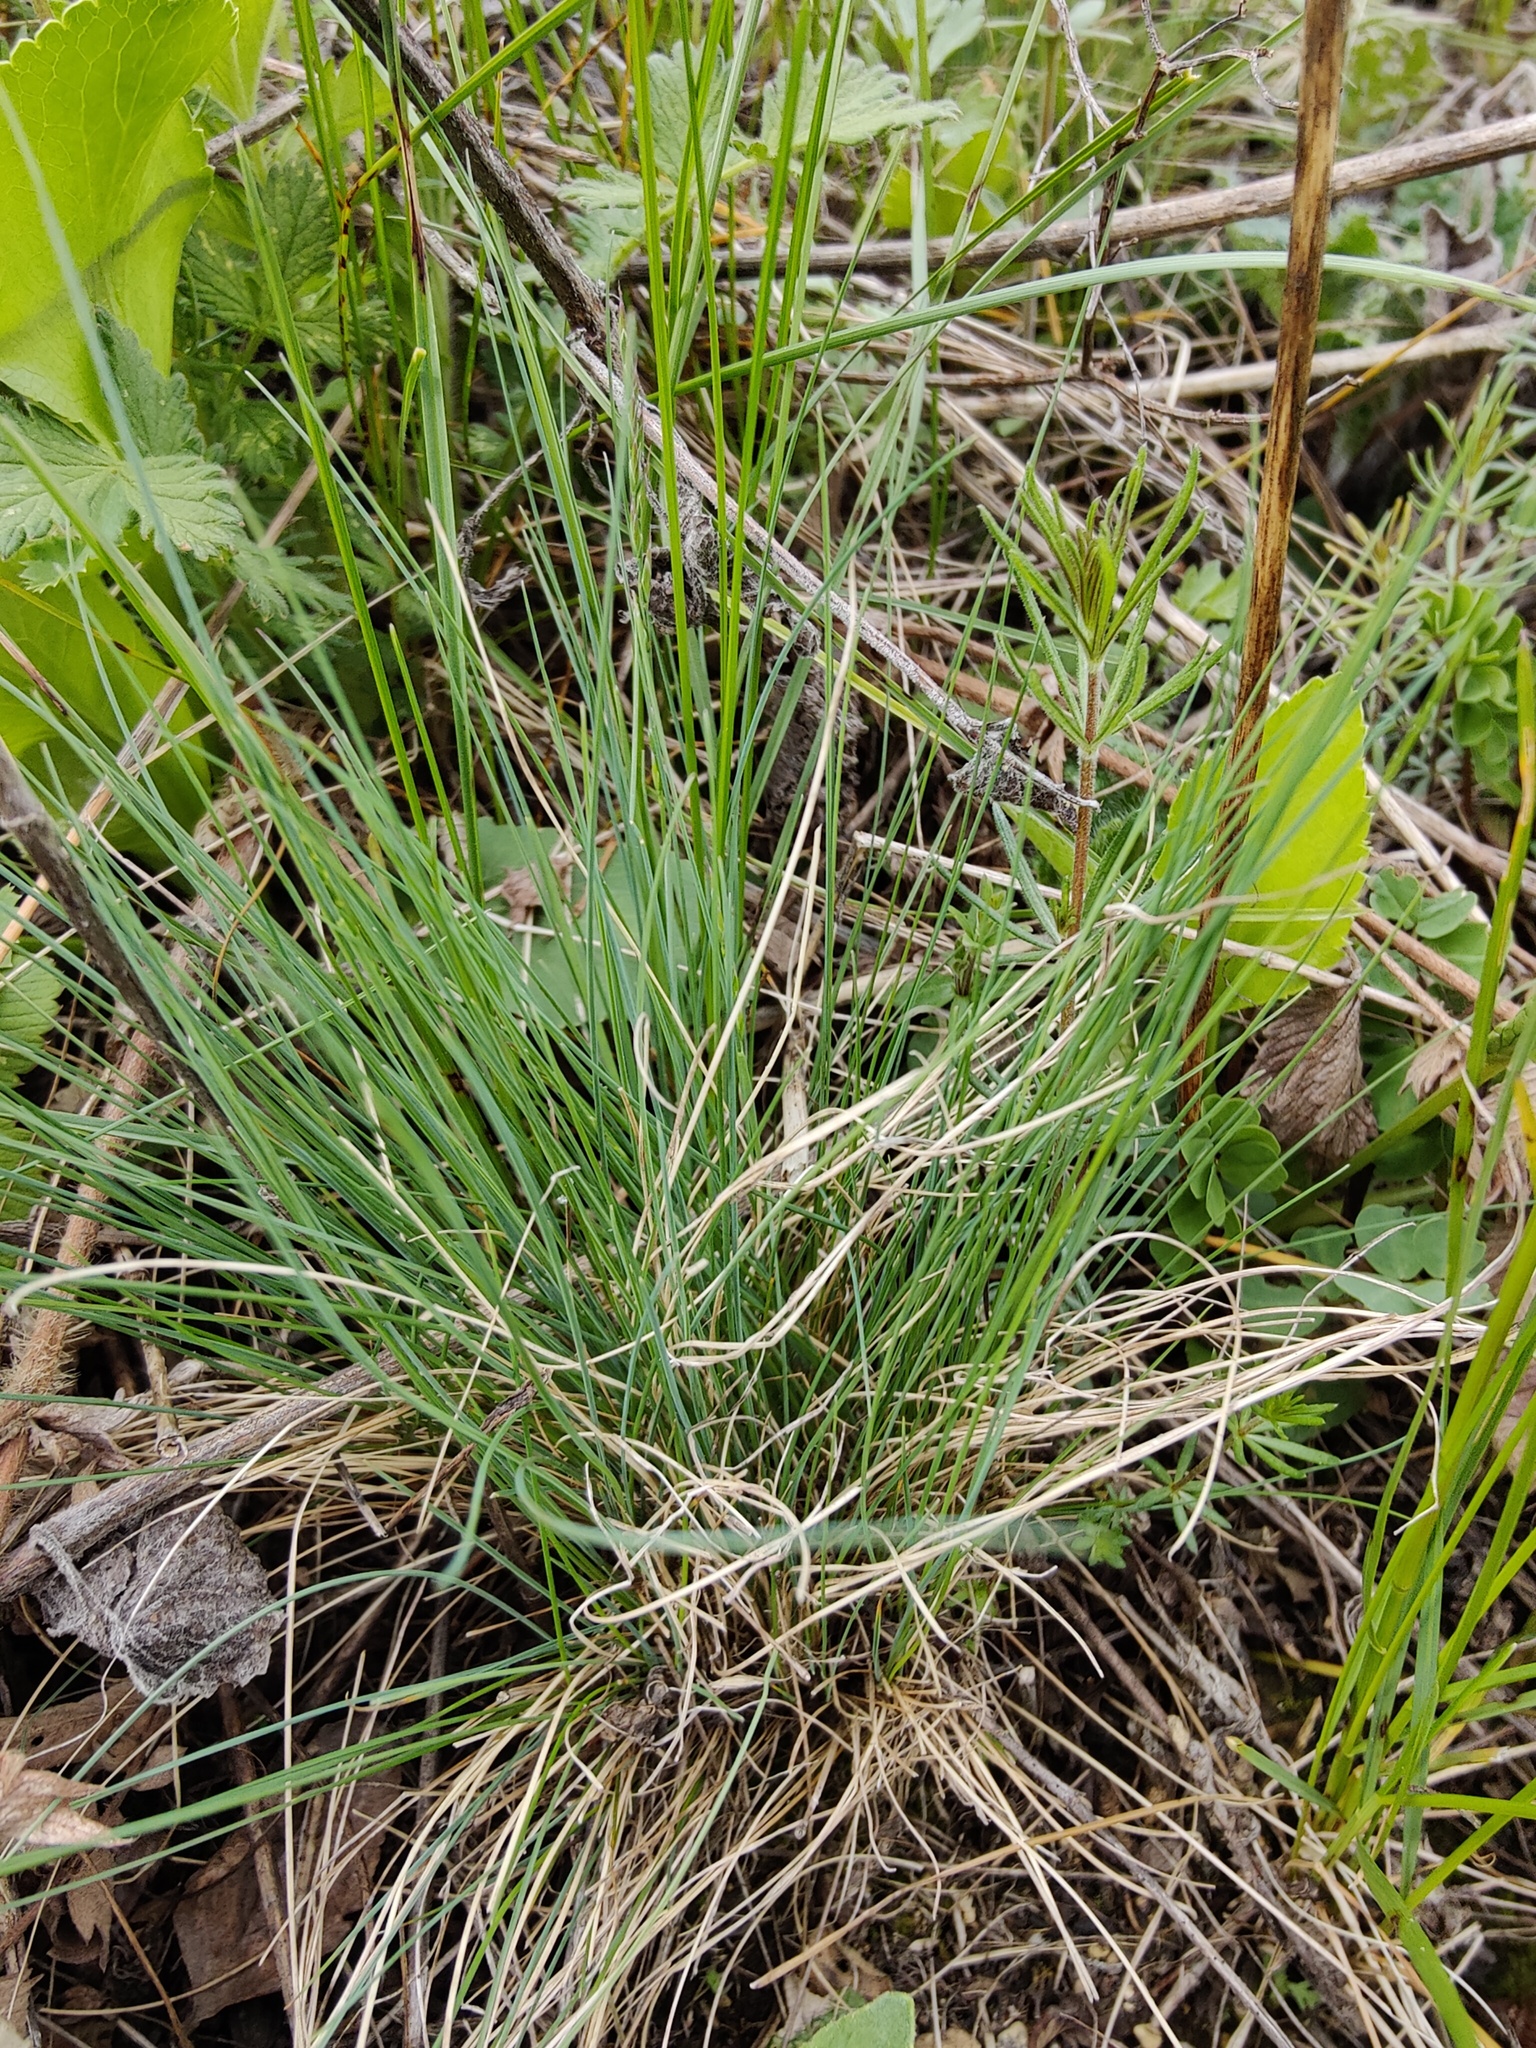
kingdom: Plantae
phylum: Tracheophyta
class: Liliopsida
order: Poales
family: Poaceae
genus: Festuca
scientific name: Festuca valesiaca
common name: Volga fescue
